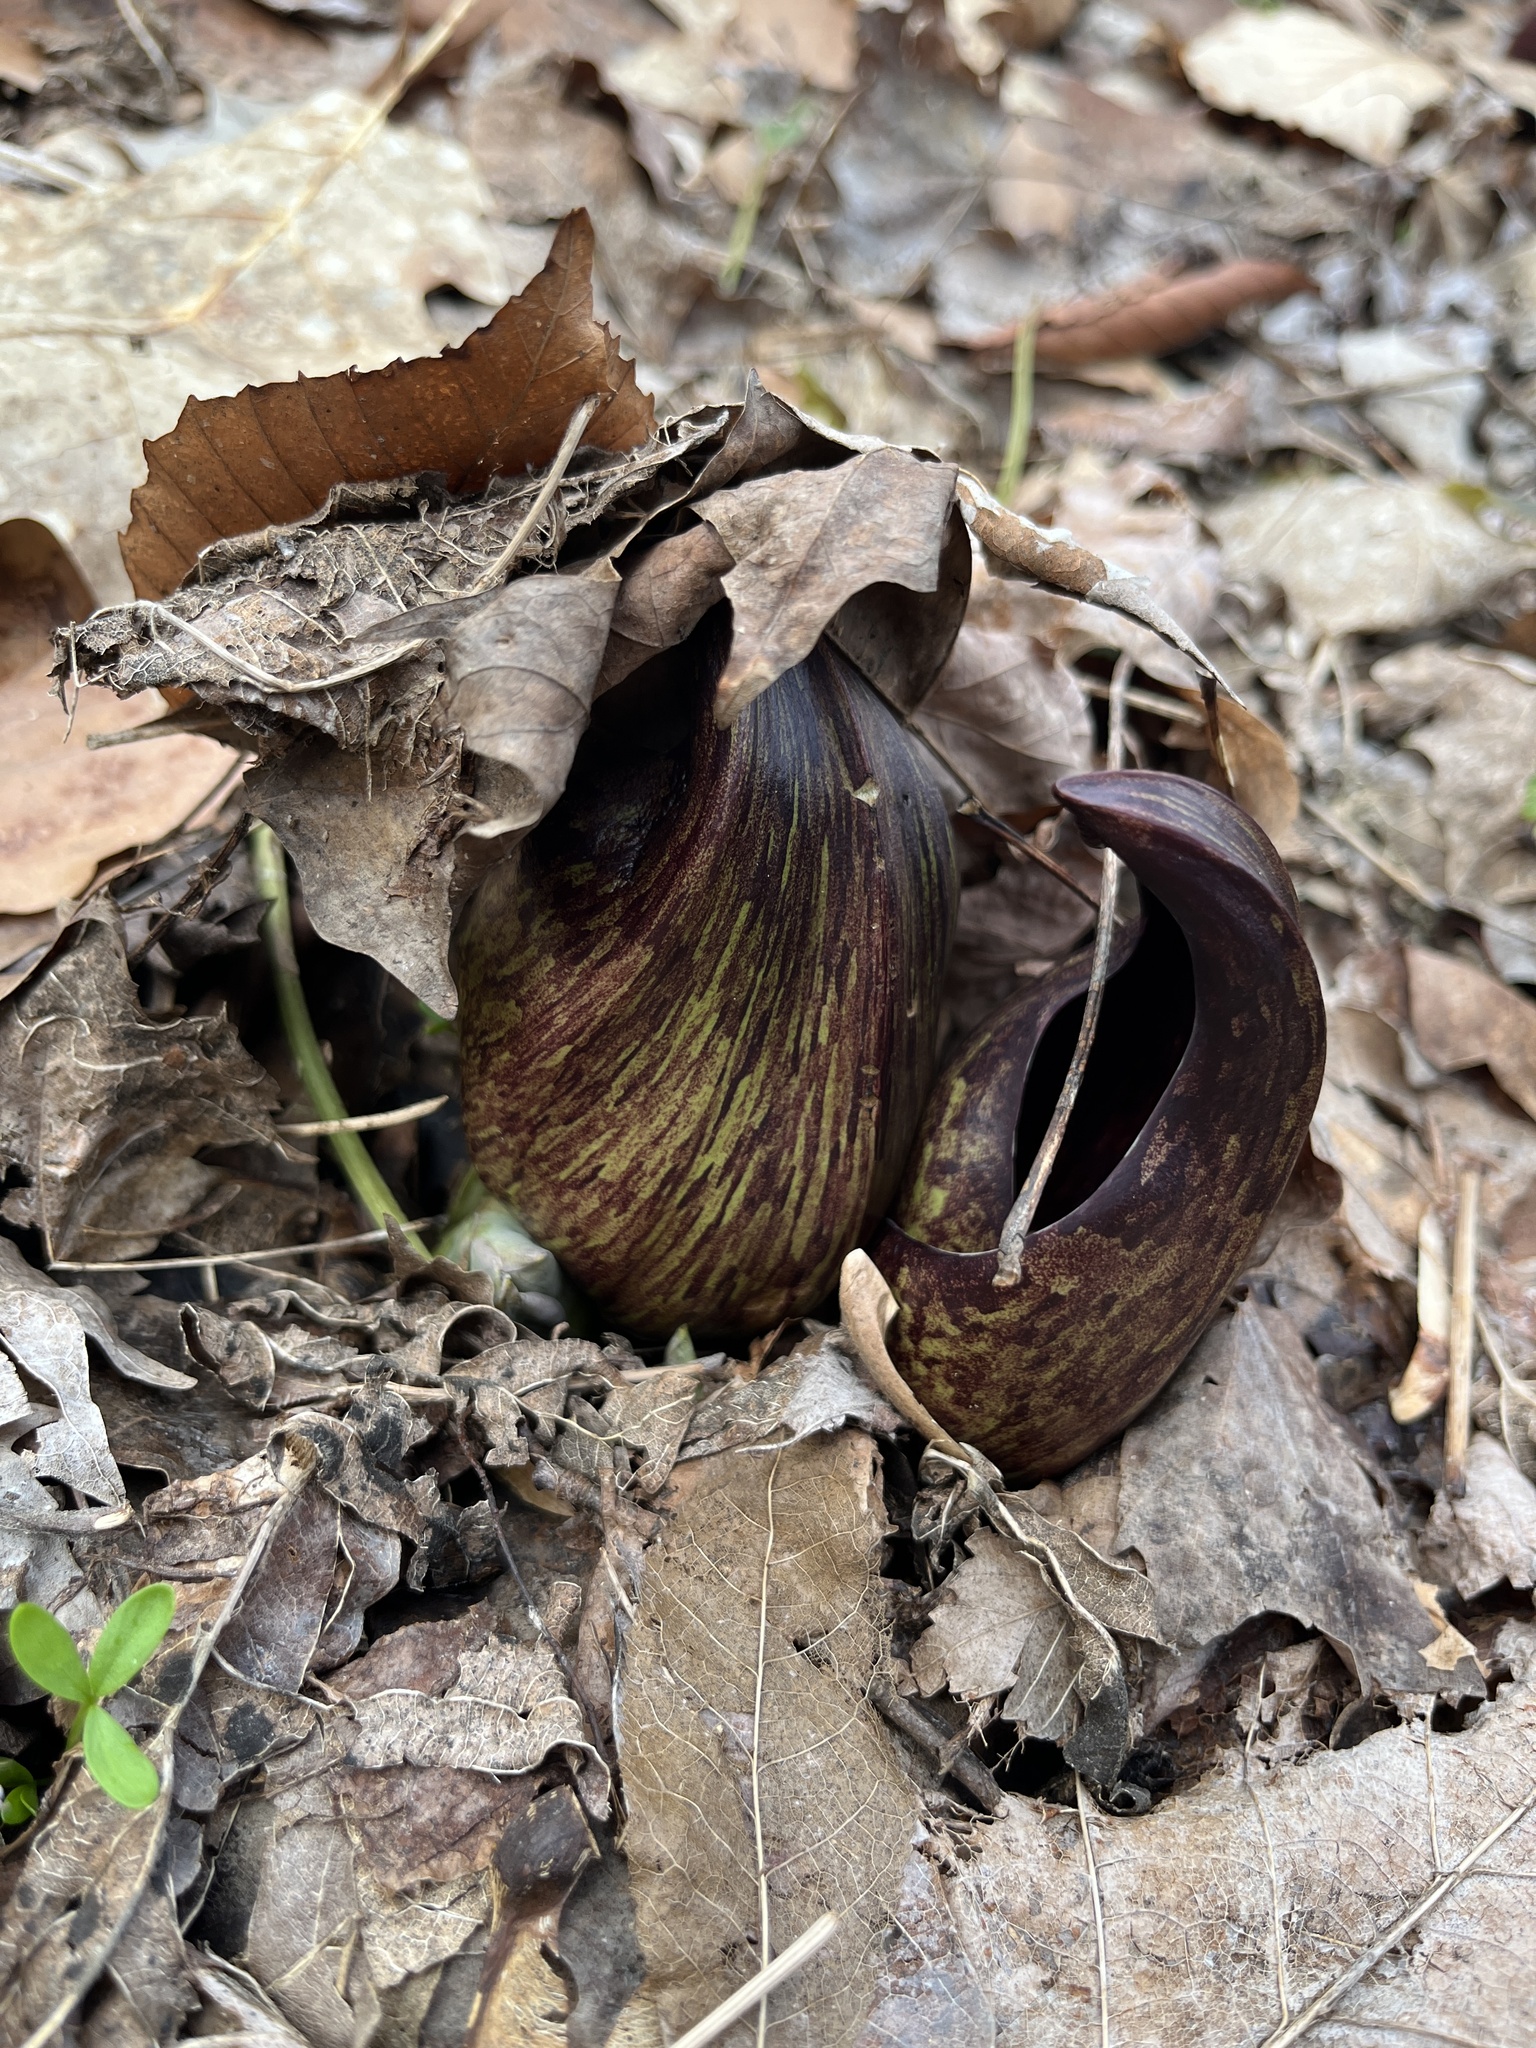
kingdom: Plantae
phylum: Tracheophyta
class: Liliopsida
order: Alismatales
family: Araceae
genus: Symplocarpus
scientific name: Symplocarpus foetidus
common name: Eastern skunk cabbage
